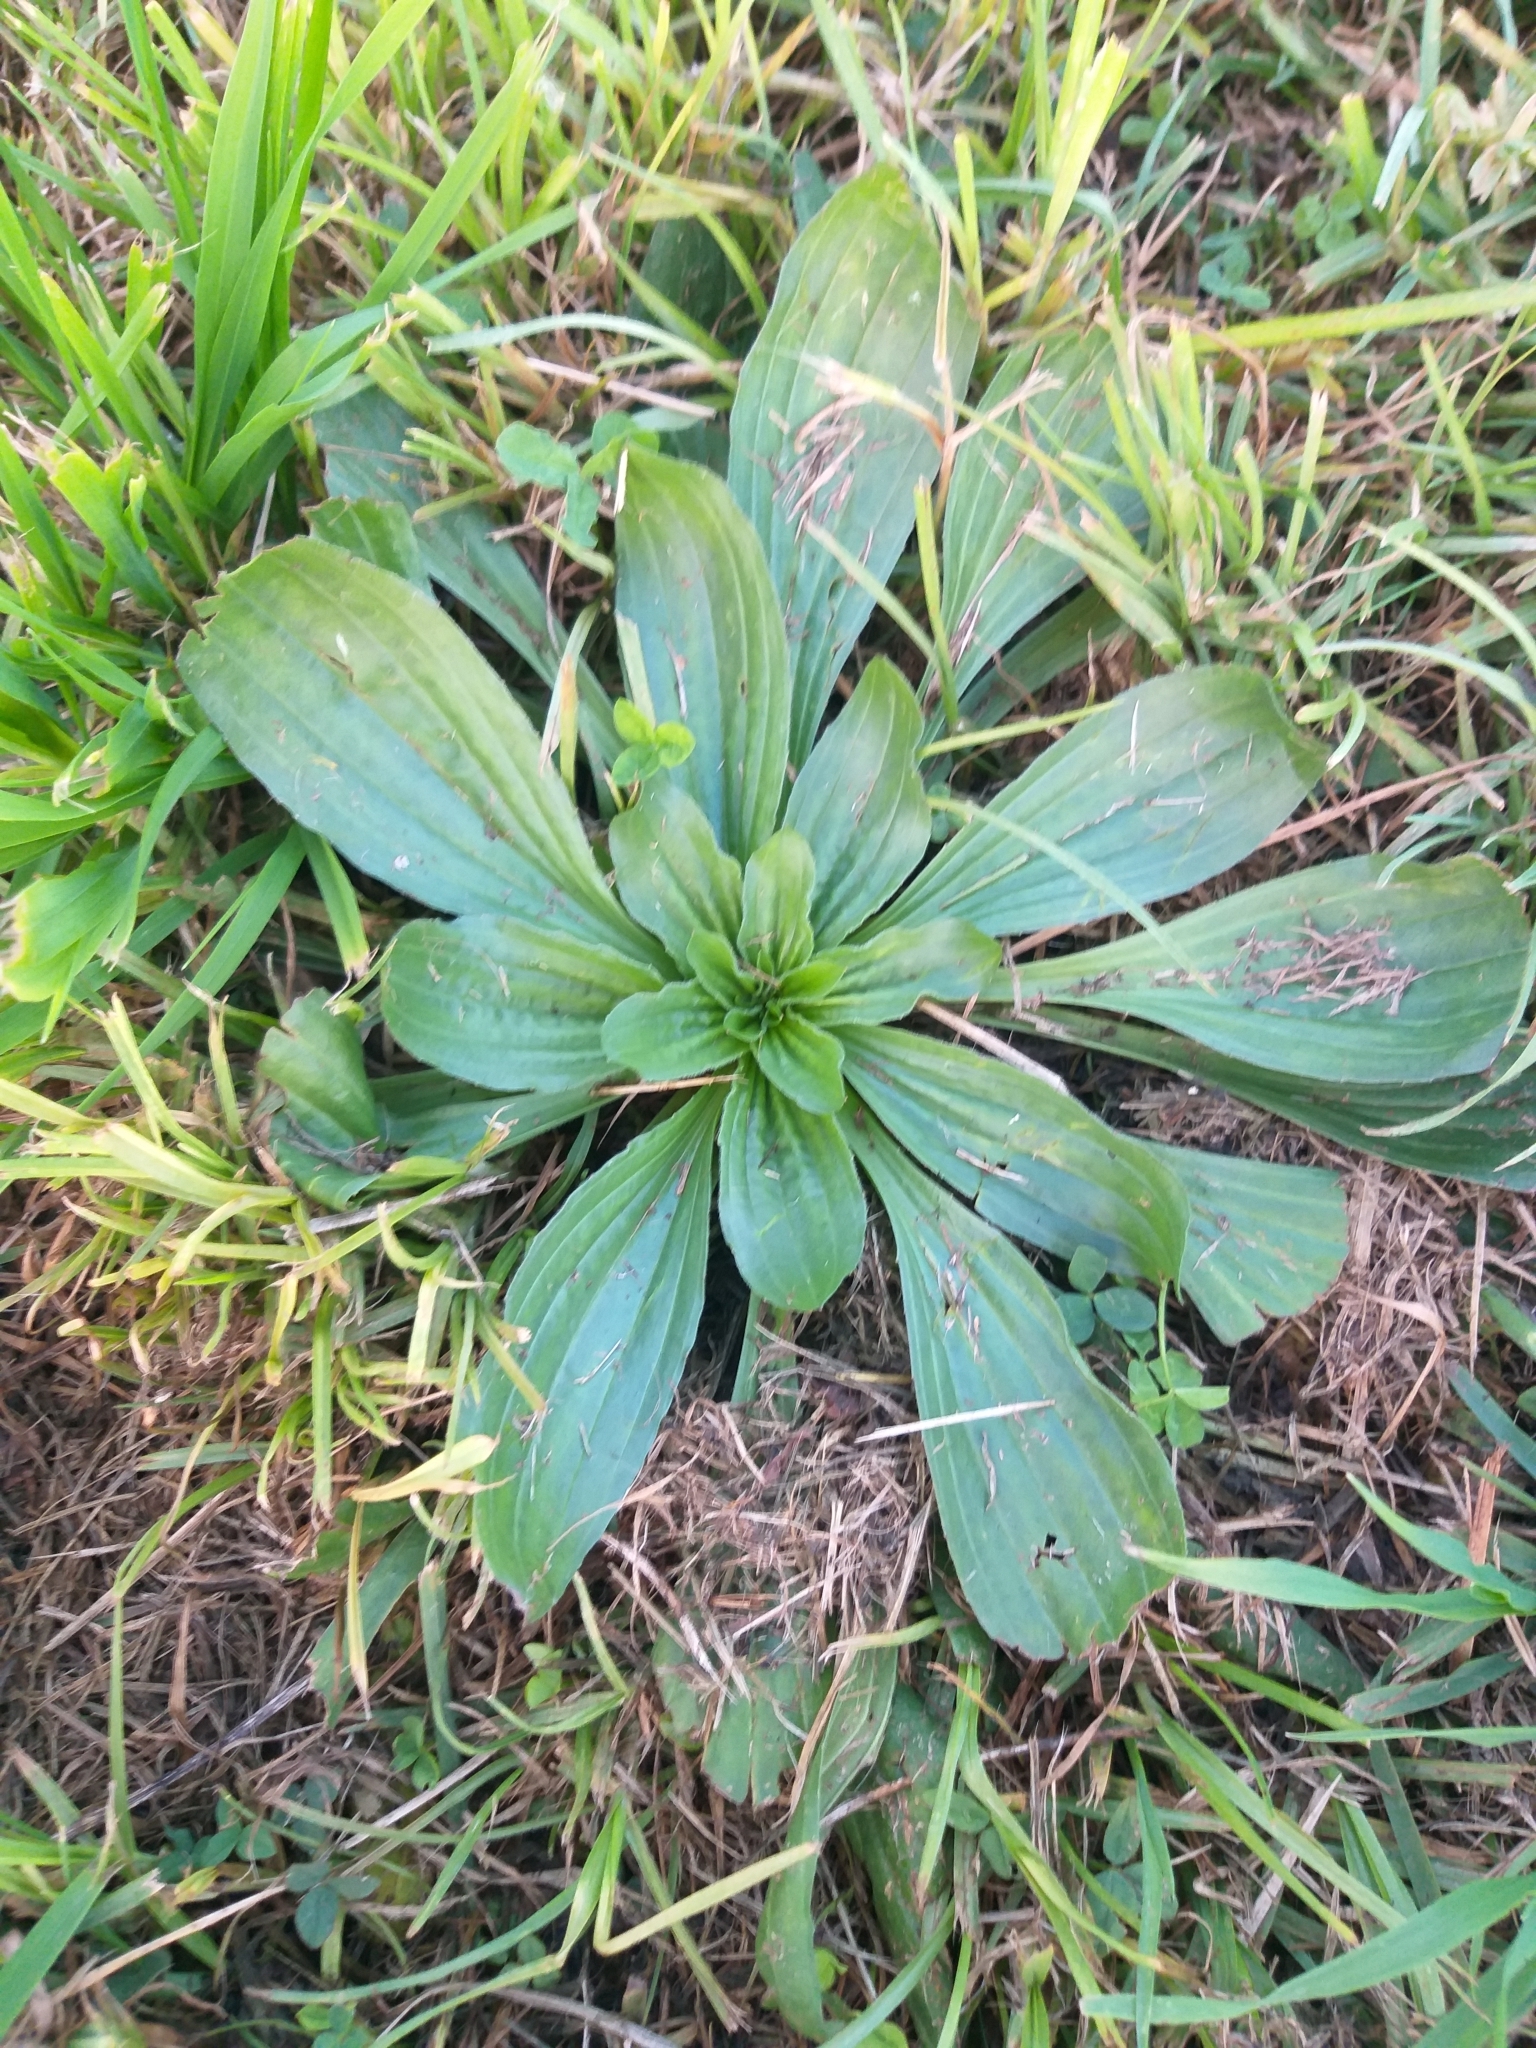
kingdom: Plantae
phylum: Tracheophyta
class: Magnoliopsida
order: Lamiales
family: Plantaginaceae
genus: Plantago
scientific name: Plantago lanceolata
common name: Ribwort plantain
